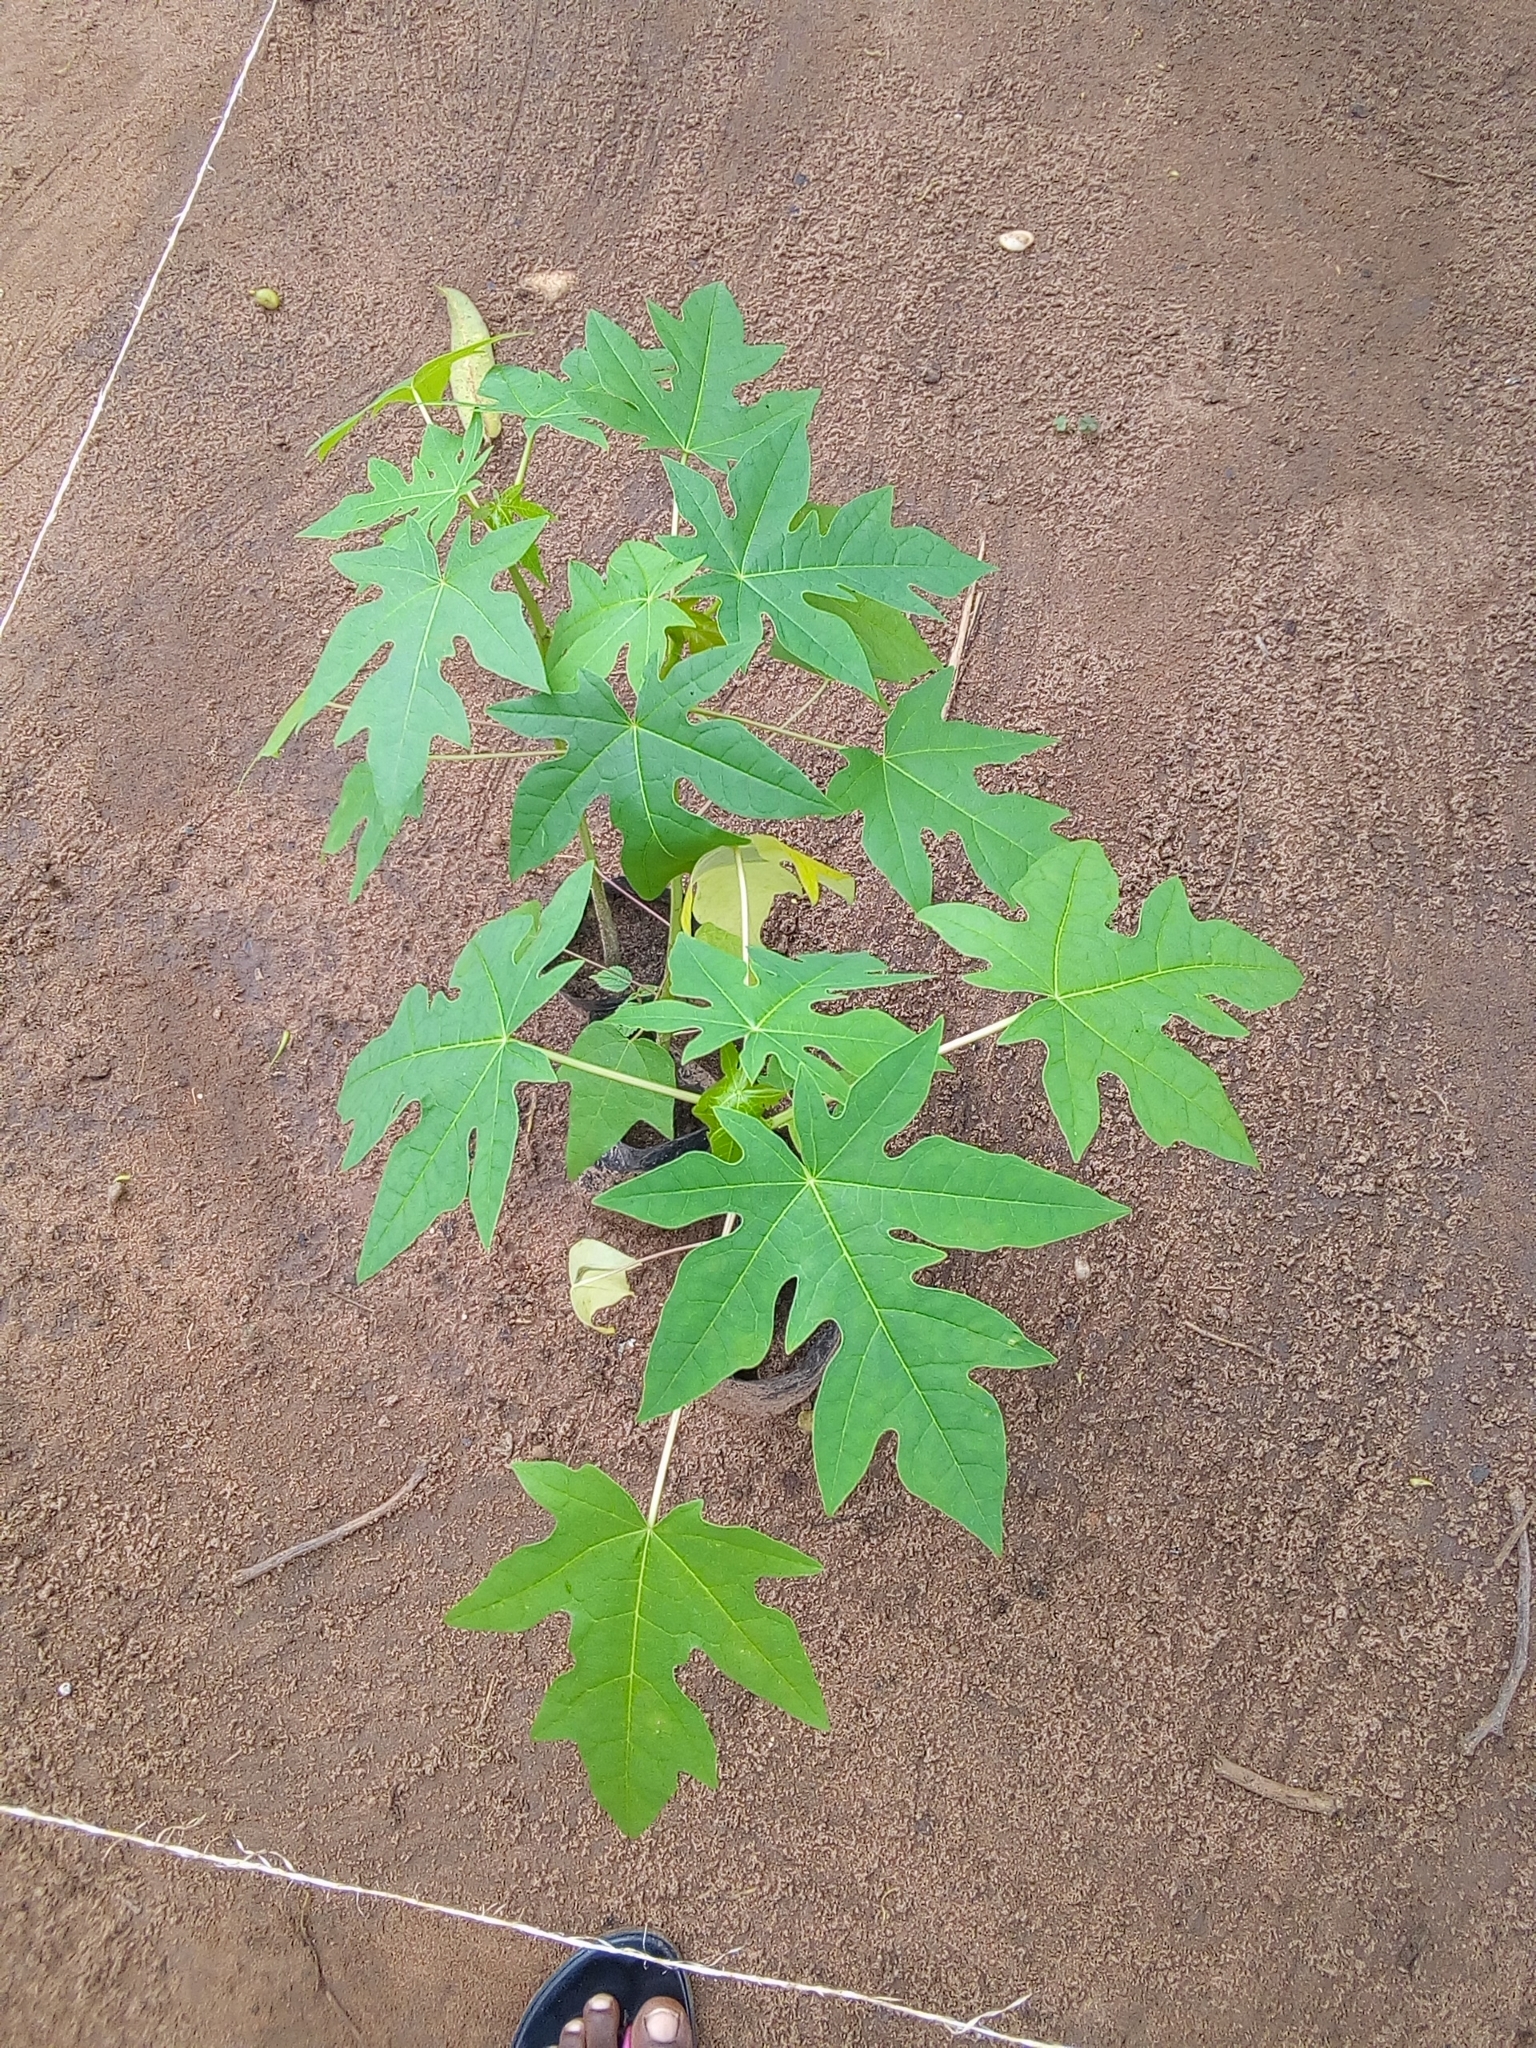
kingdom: Plantae
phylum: Tracheophyta
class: Magnoliopsida
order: Brassicales
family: Caricaceae
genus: Carica
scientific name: Carica papaya
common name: Papaya
